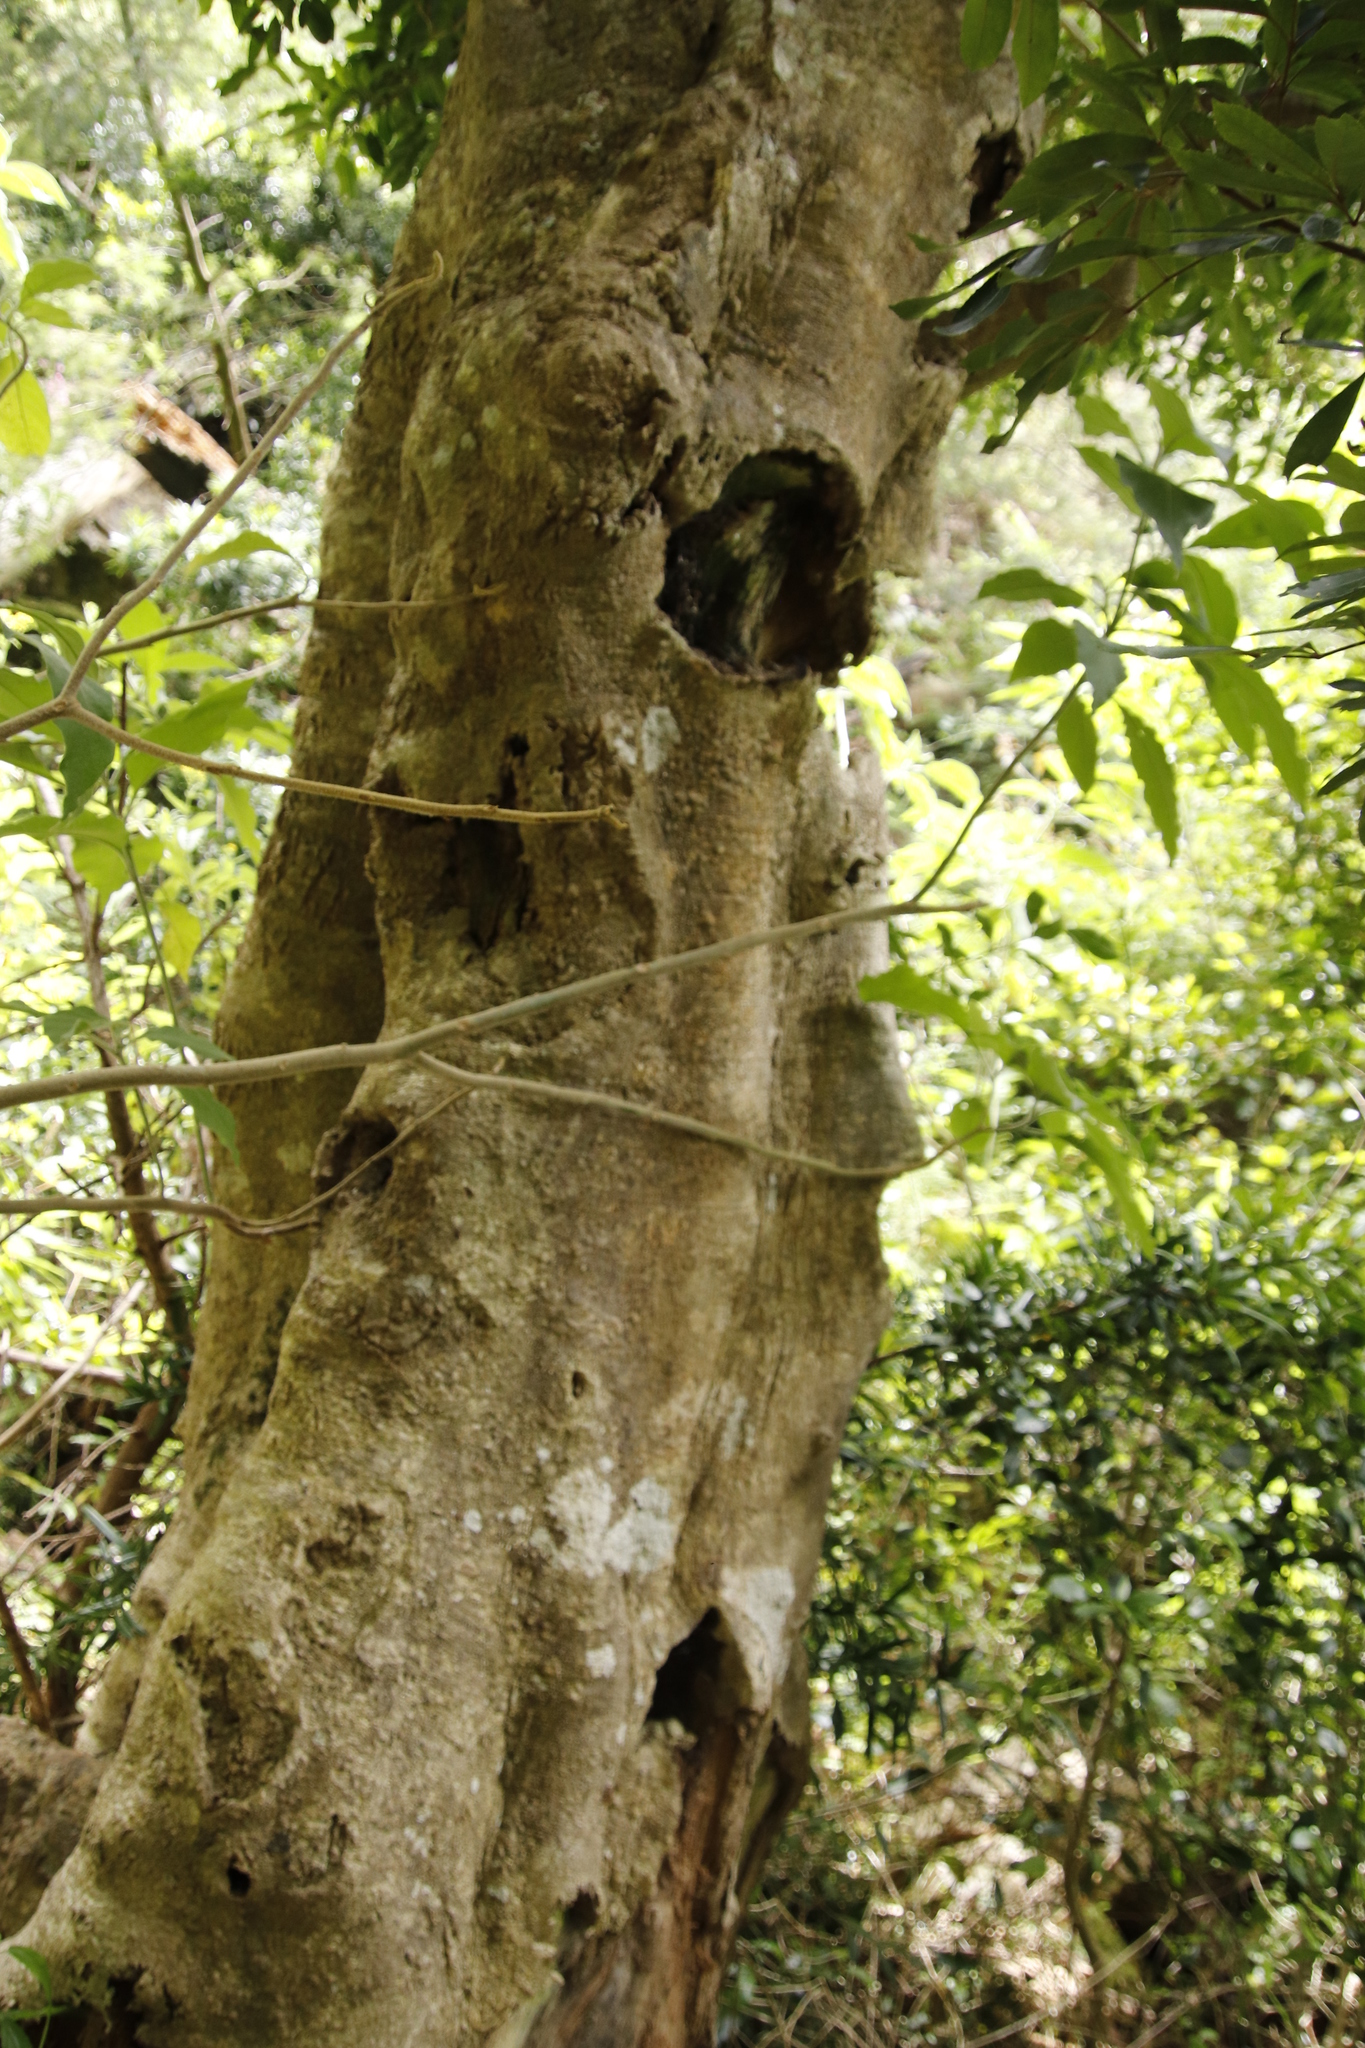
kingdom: Plantae
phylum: Tracheophyta
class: Magnoliopsida
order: Aquifoliales
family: Aquifoliaceae
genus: Ilex
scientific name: Ilex mitis
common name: African holly
